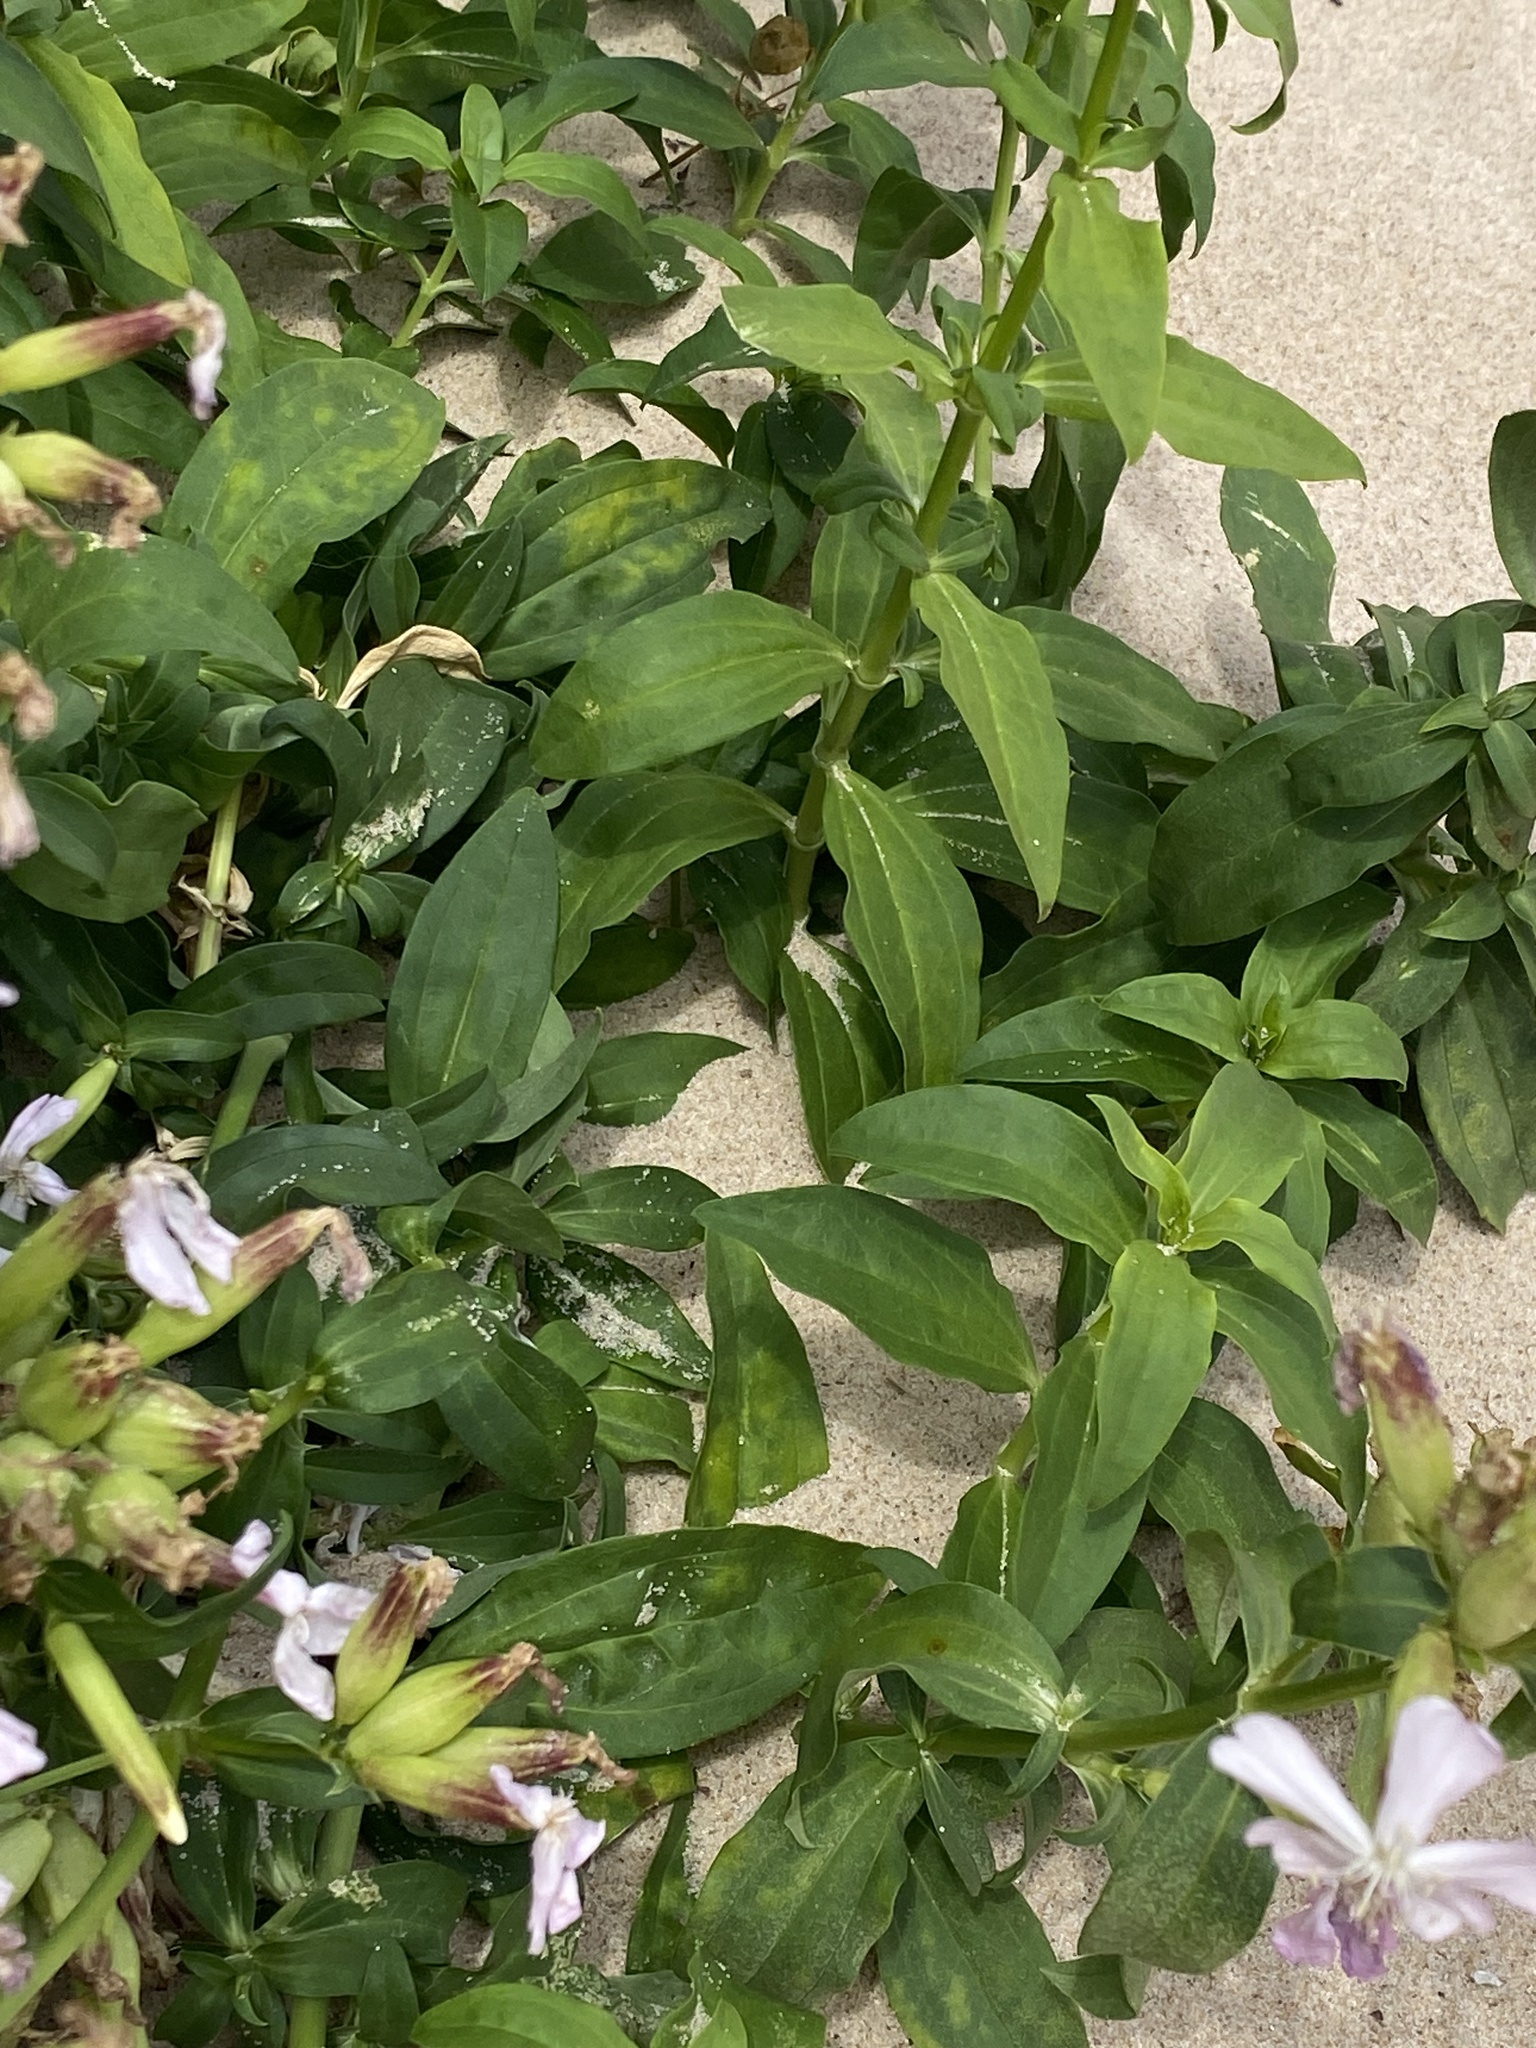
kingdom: Plantae
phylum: Tracheophyta
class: Magnoliopsida
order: Caryophyllales
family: Caryophyllaceae
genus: Saponaria
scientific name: Saponaria officinalis
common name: Soapwort
